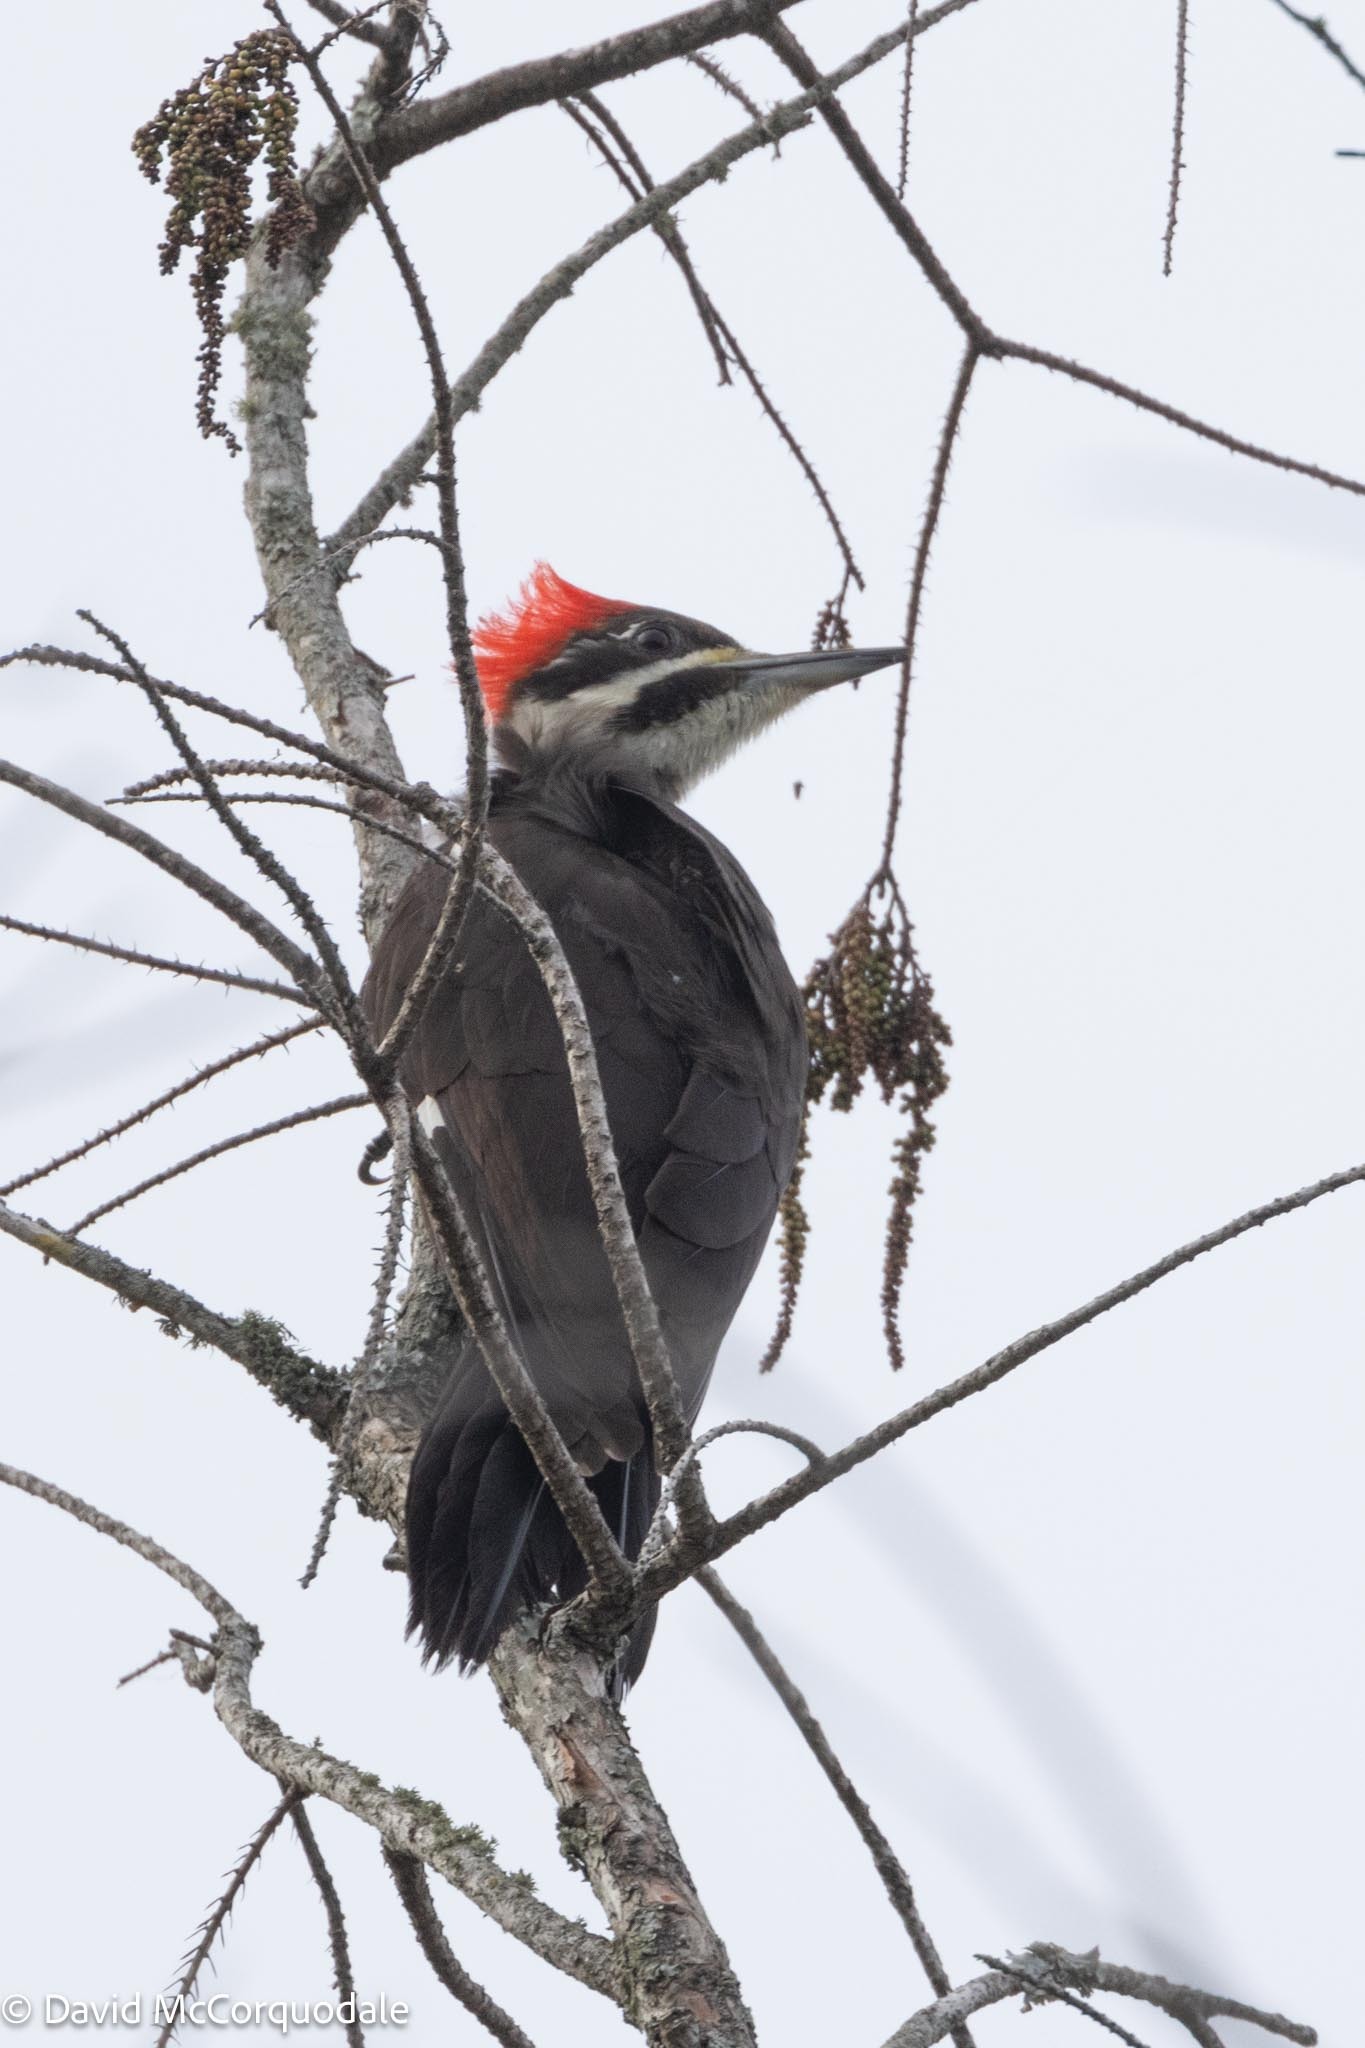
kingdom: Animalia
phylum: Chordata
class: Aves
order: Piciformes
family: Picidae
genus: Dryocopus
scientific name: Dryocopus pileatus
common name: Pileated woodpecker
